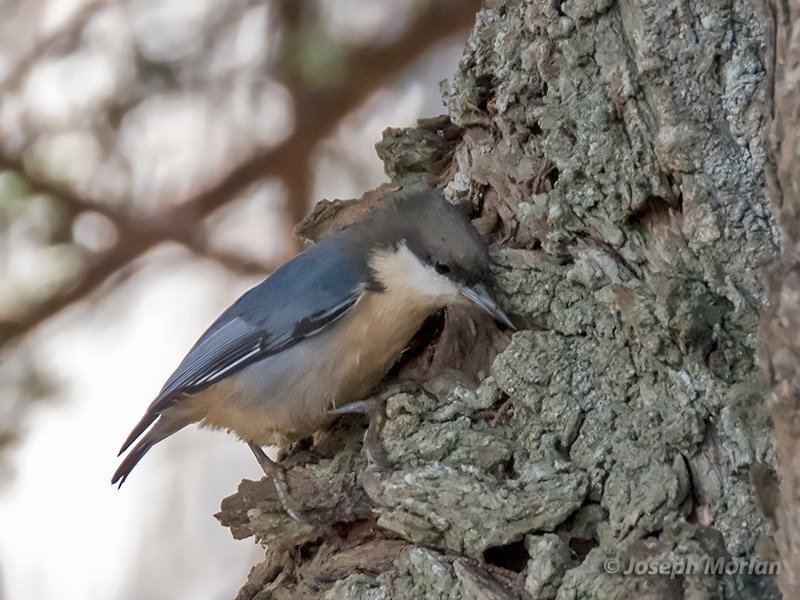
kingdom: Animalia
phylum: Chordata
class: Aves
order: Passeriformes
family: Sittidae
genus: Sitta
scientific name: Sitta pygmaea
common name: Pygmy nuthatch
